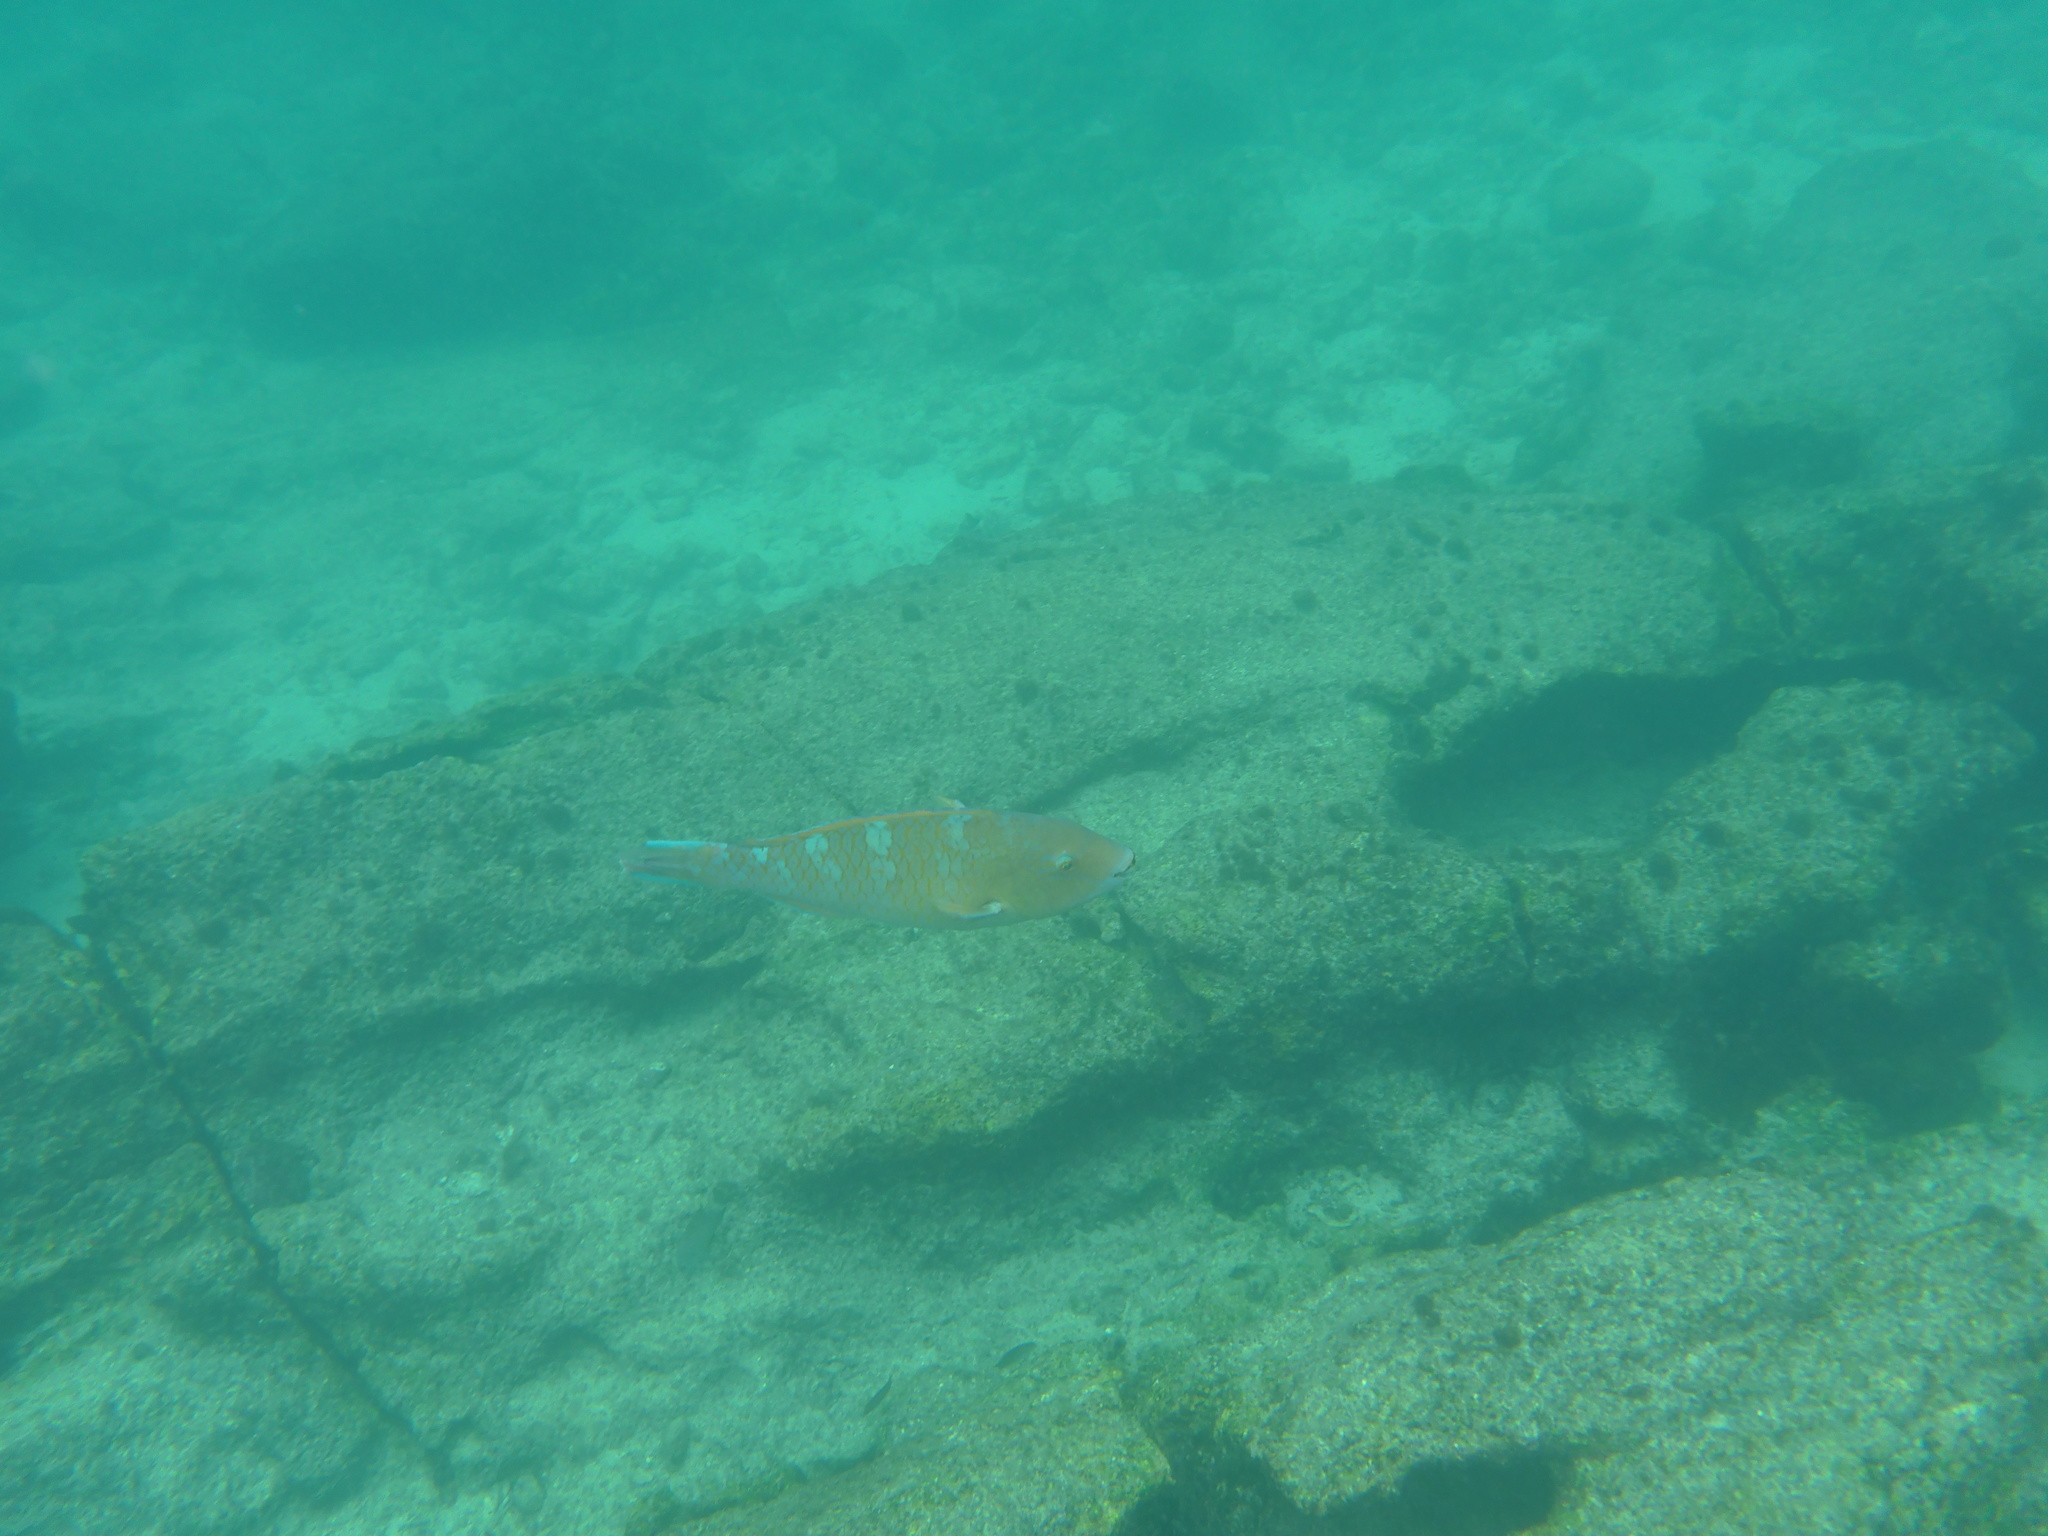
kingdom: Animalia
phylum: Chordata
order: Perciformes
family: Scaridae
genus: Scarus
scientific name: Scarus ghobban
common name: Blue-barred parrotfish
